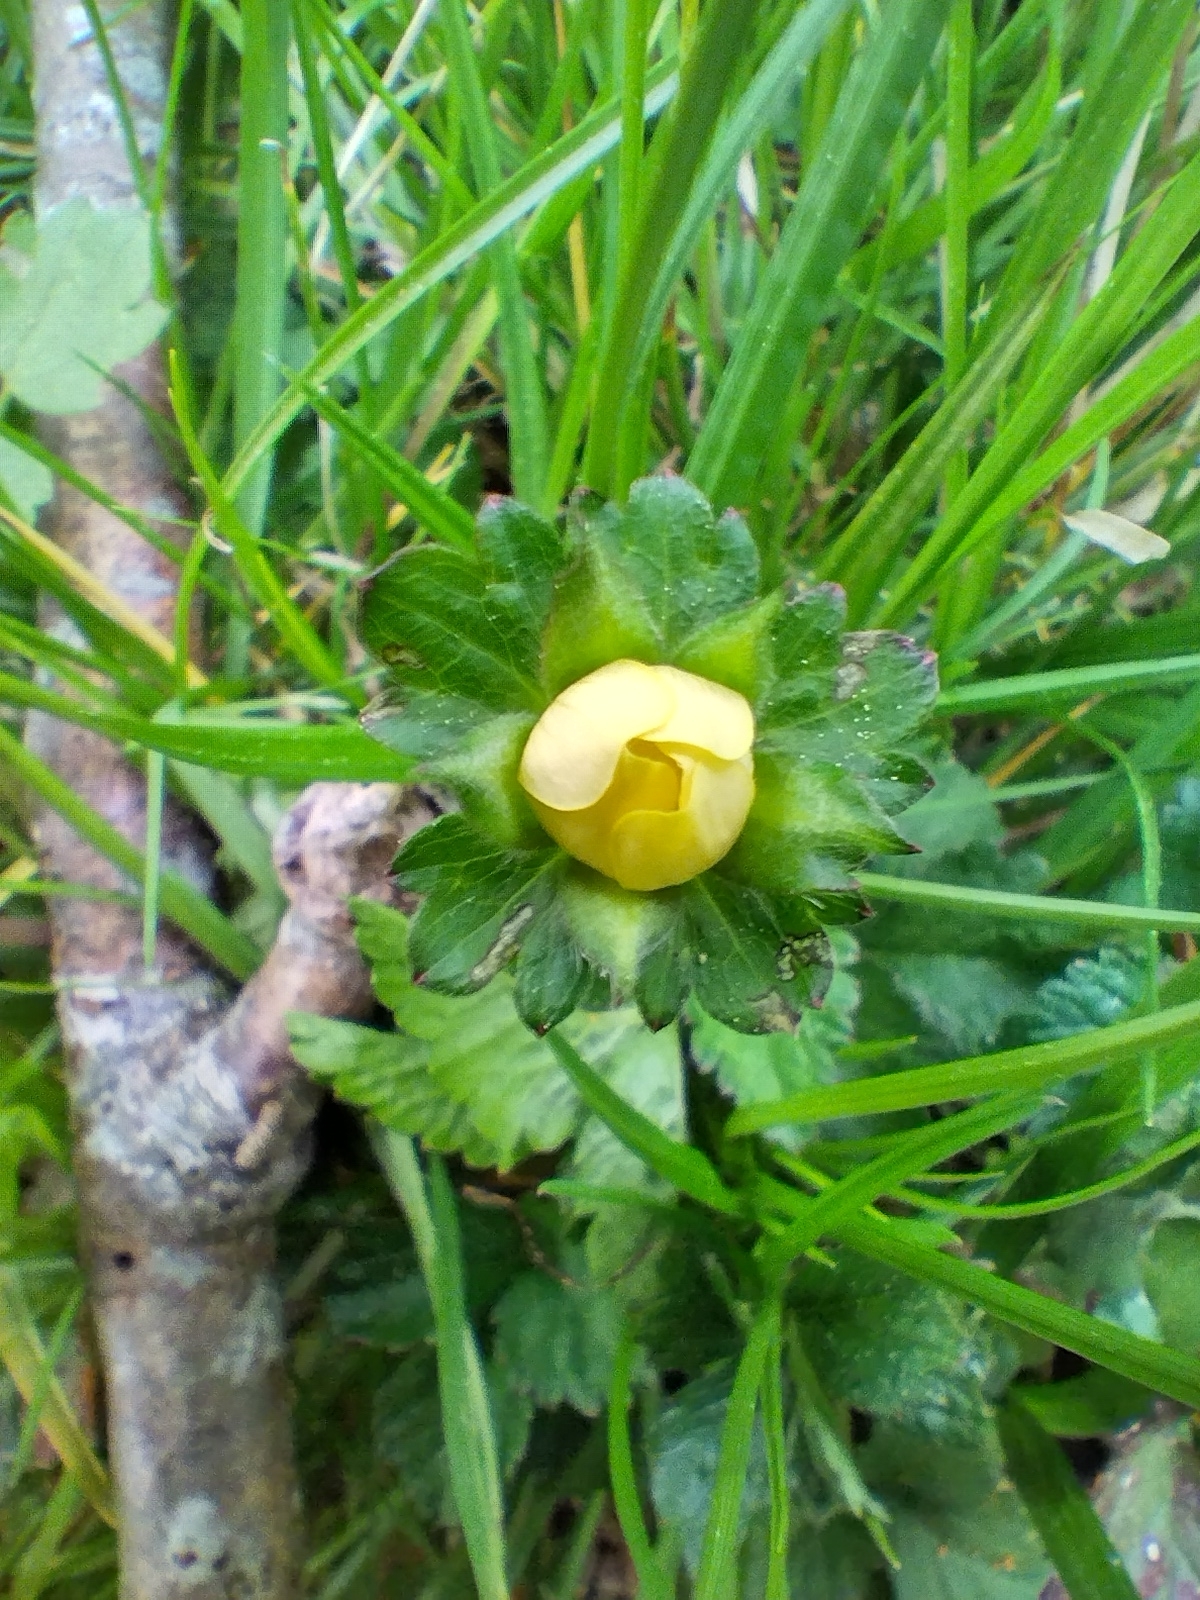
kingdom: Plantae
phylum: Tracheophyta
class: Magnoliopsida
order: Rosales
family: Rosaceae
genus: Potentilla
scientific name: Potentilla indica
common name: Yellow-flowered strawberry
